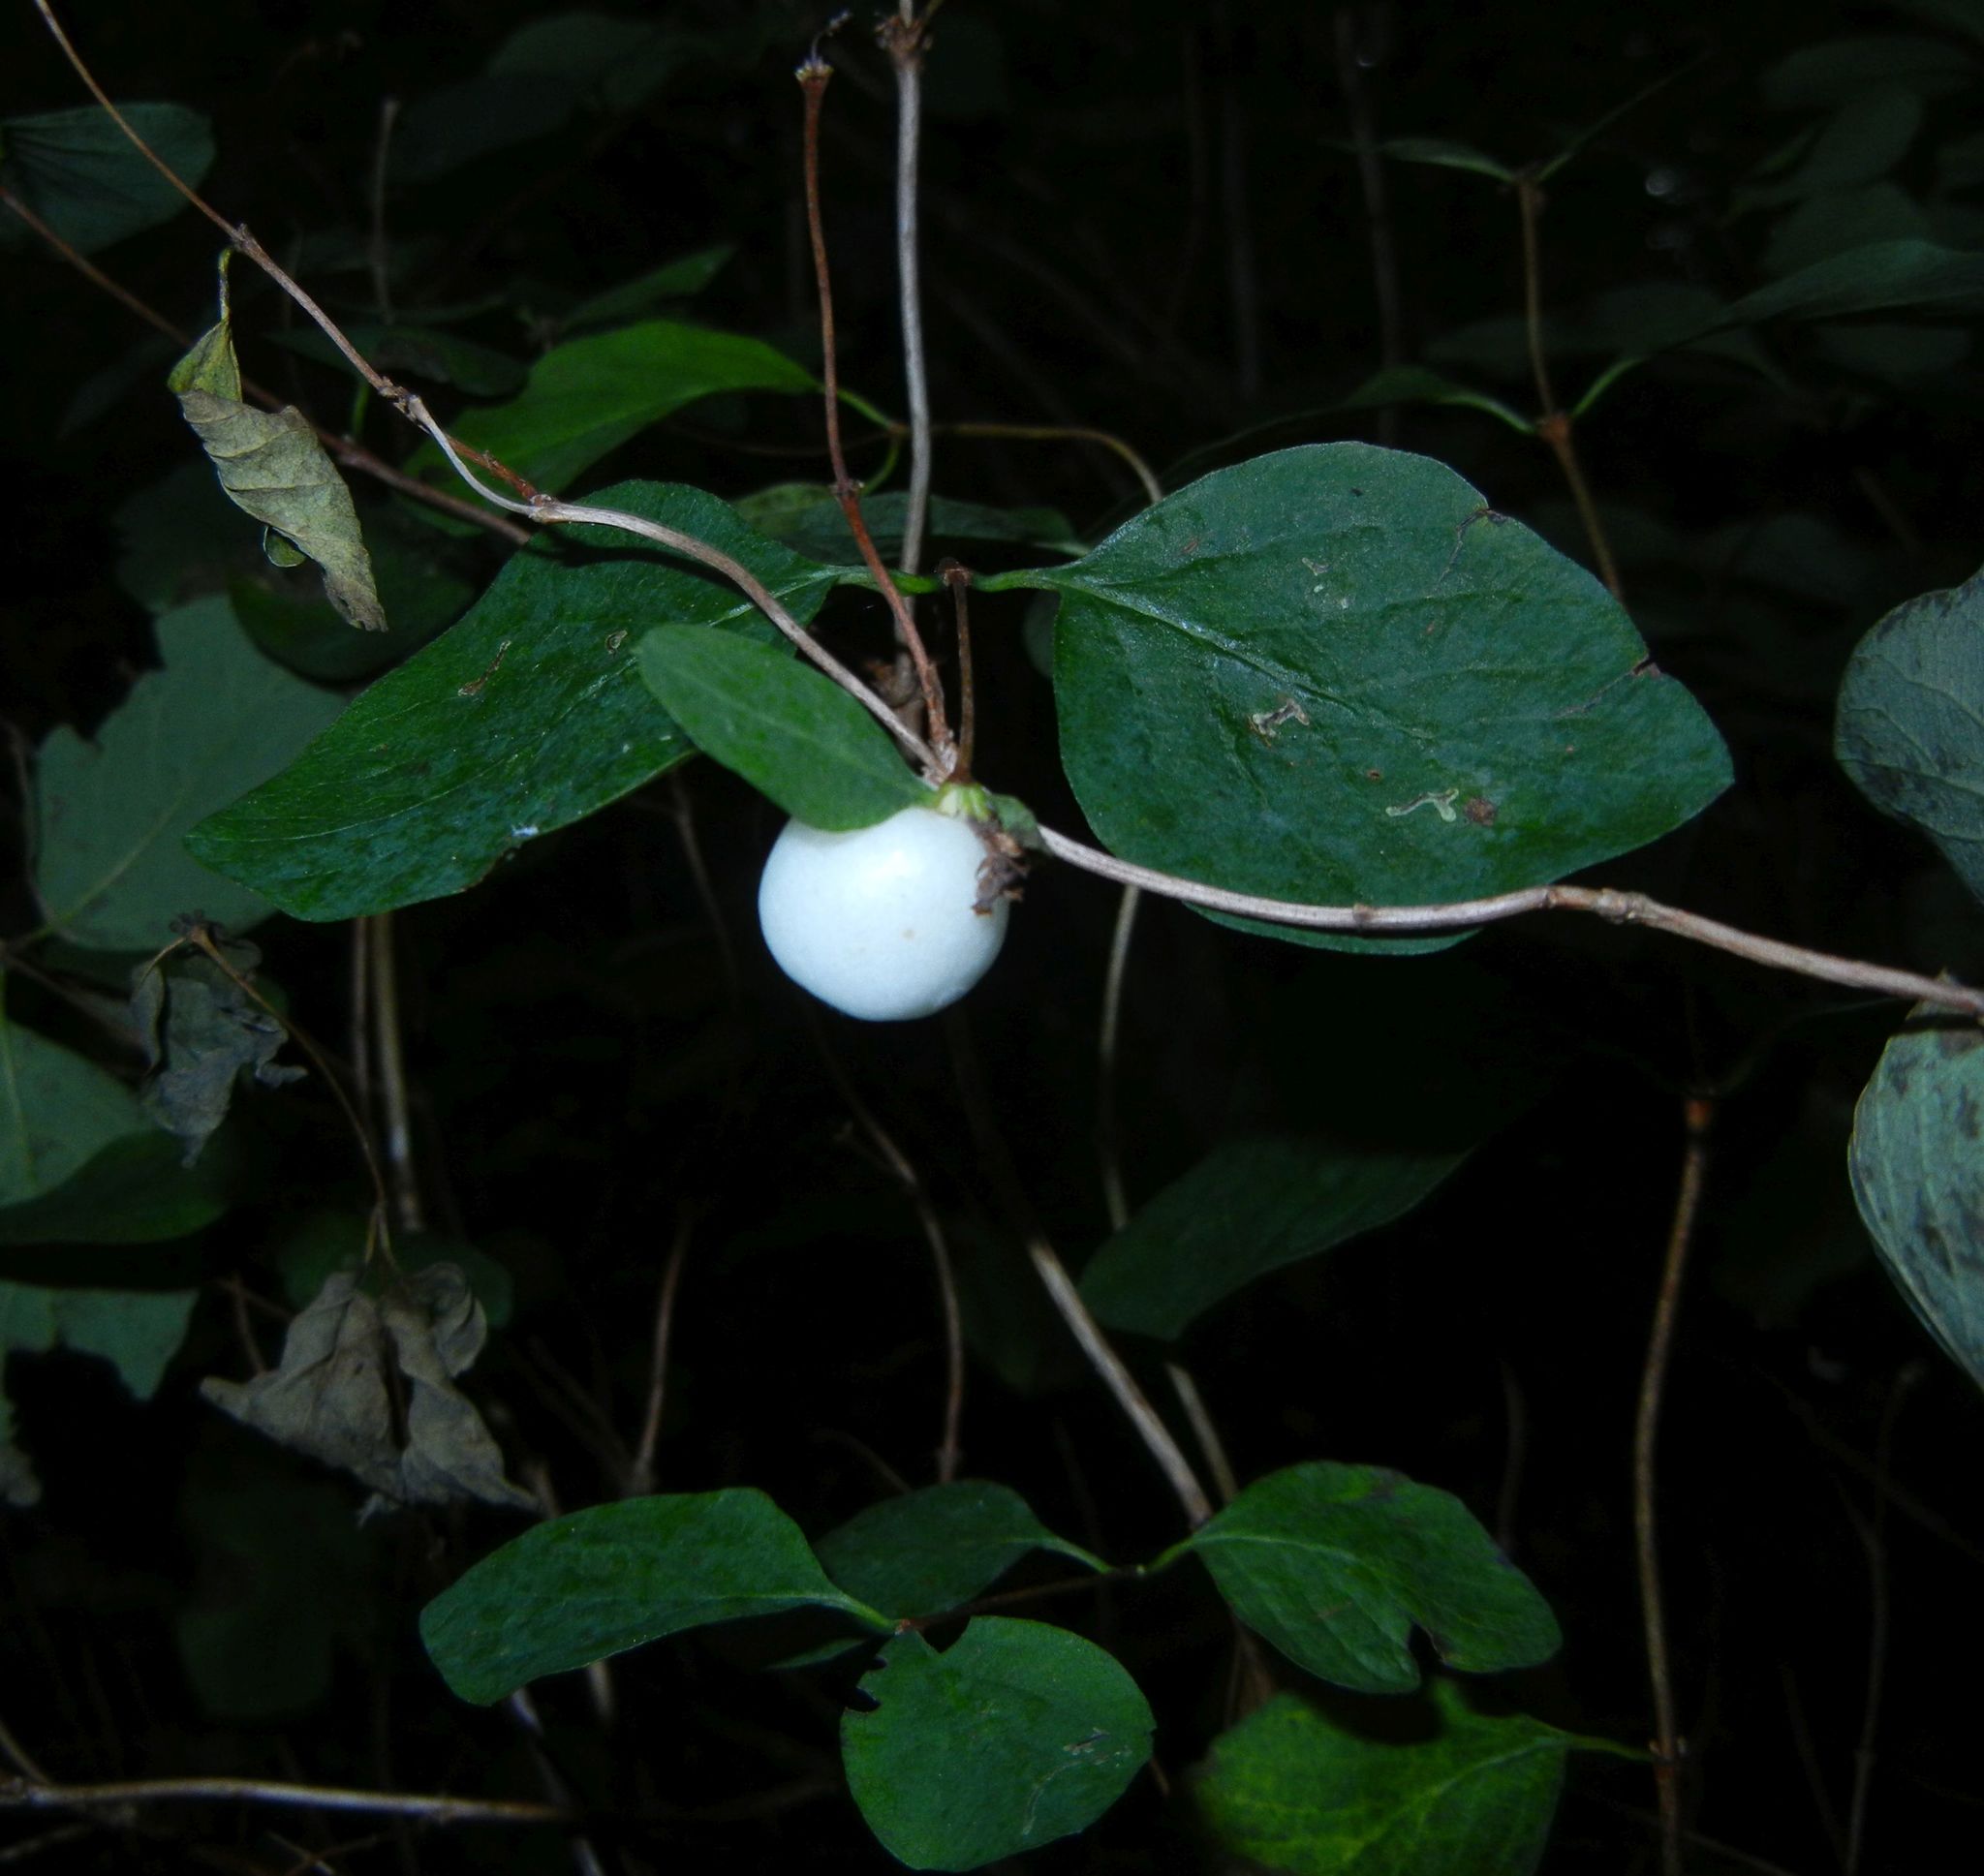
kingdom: Plantae
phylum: Tracheophyta
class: Magnoliopsida
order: Dipsacales
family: Caprifoliaceae
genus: Symphoricarpos
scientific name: Symphoricarpos albus
